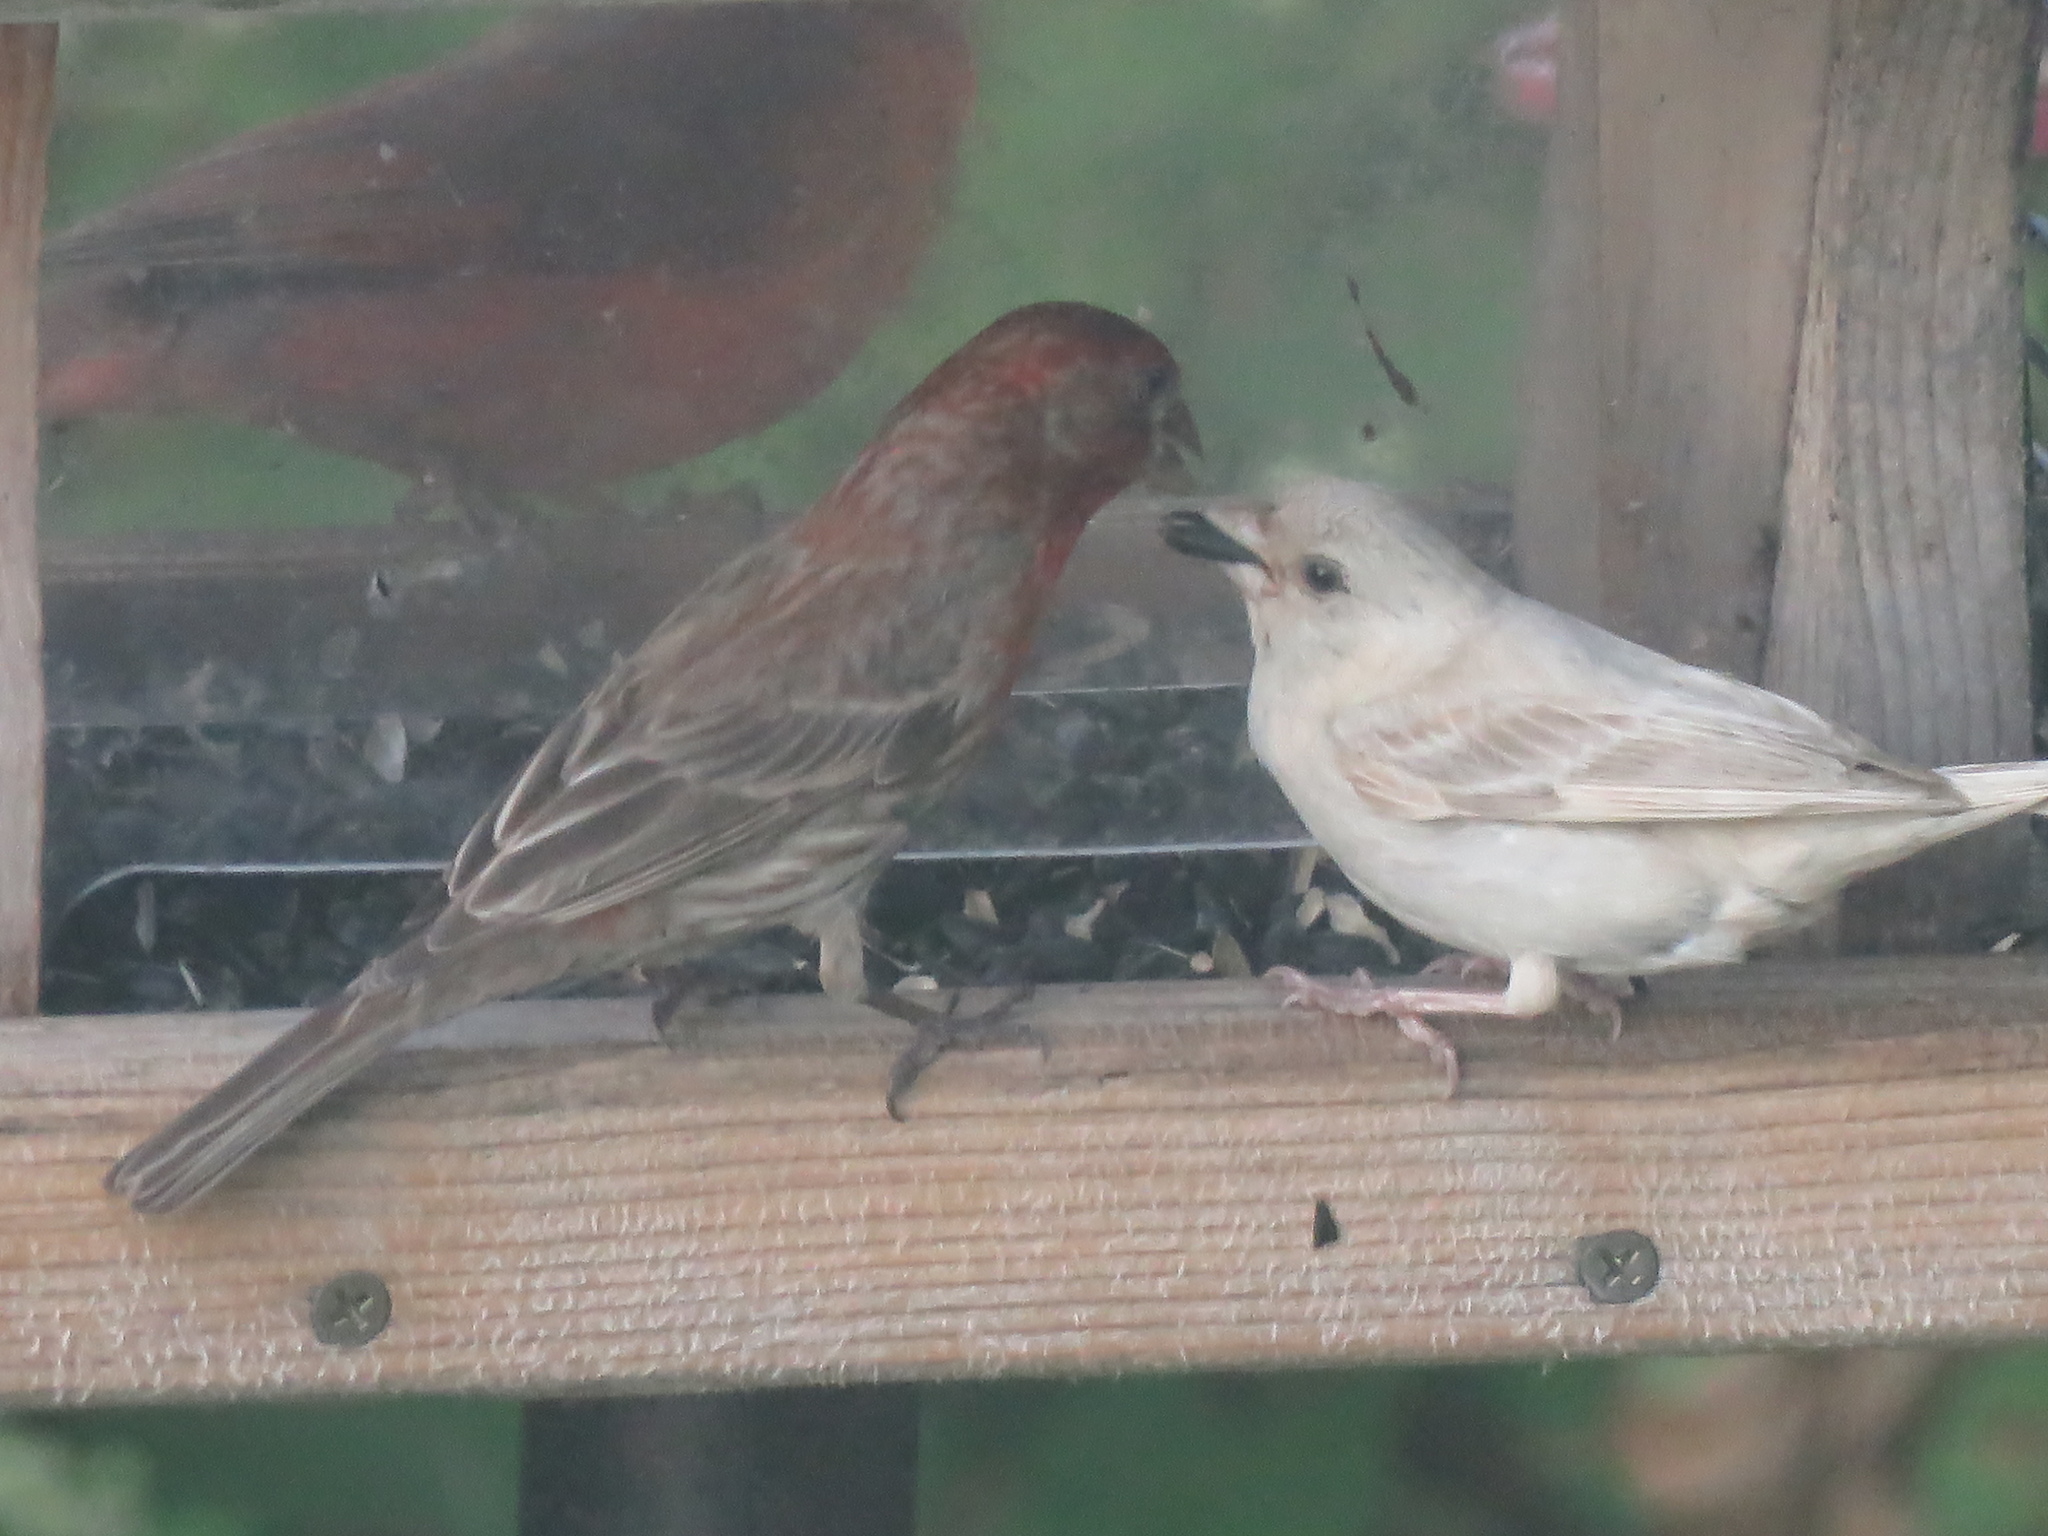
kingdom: Animalia
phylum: Chordata
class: Aves
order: Passeriformes
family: Fringillidae
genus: Haemorhous
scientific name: Haemorhous mexicanus
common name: House finch
